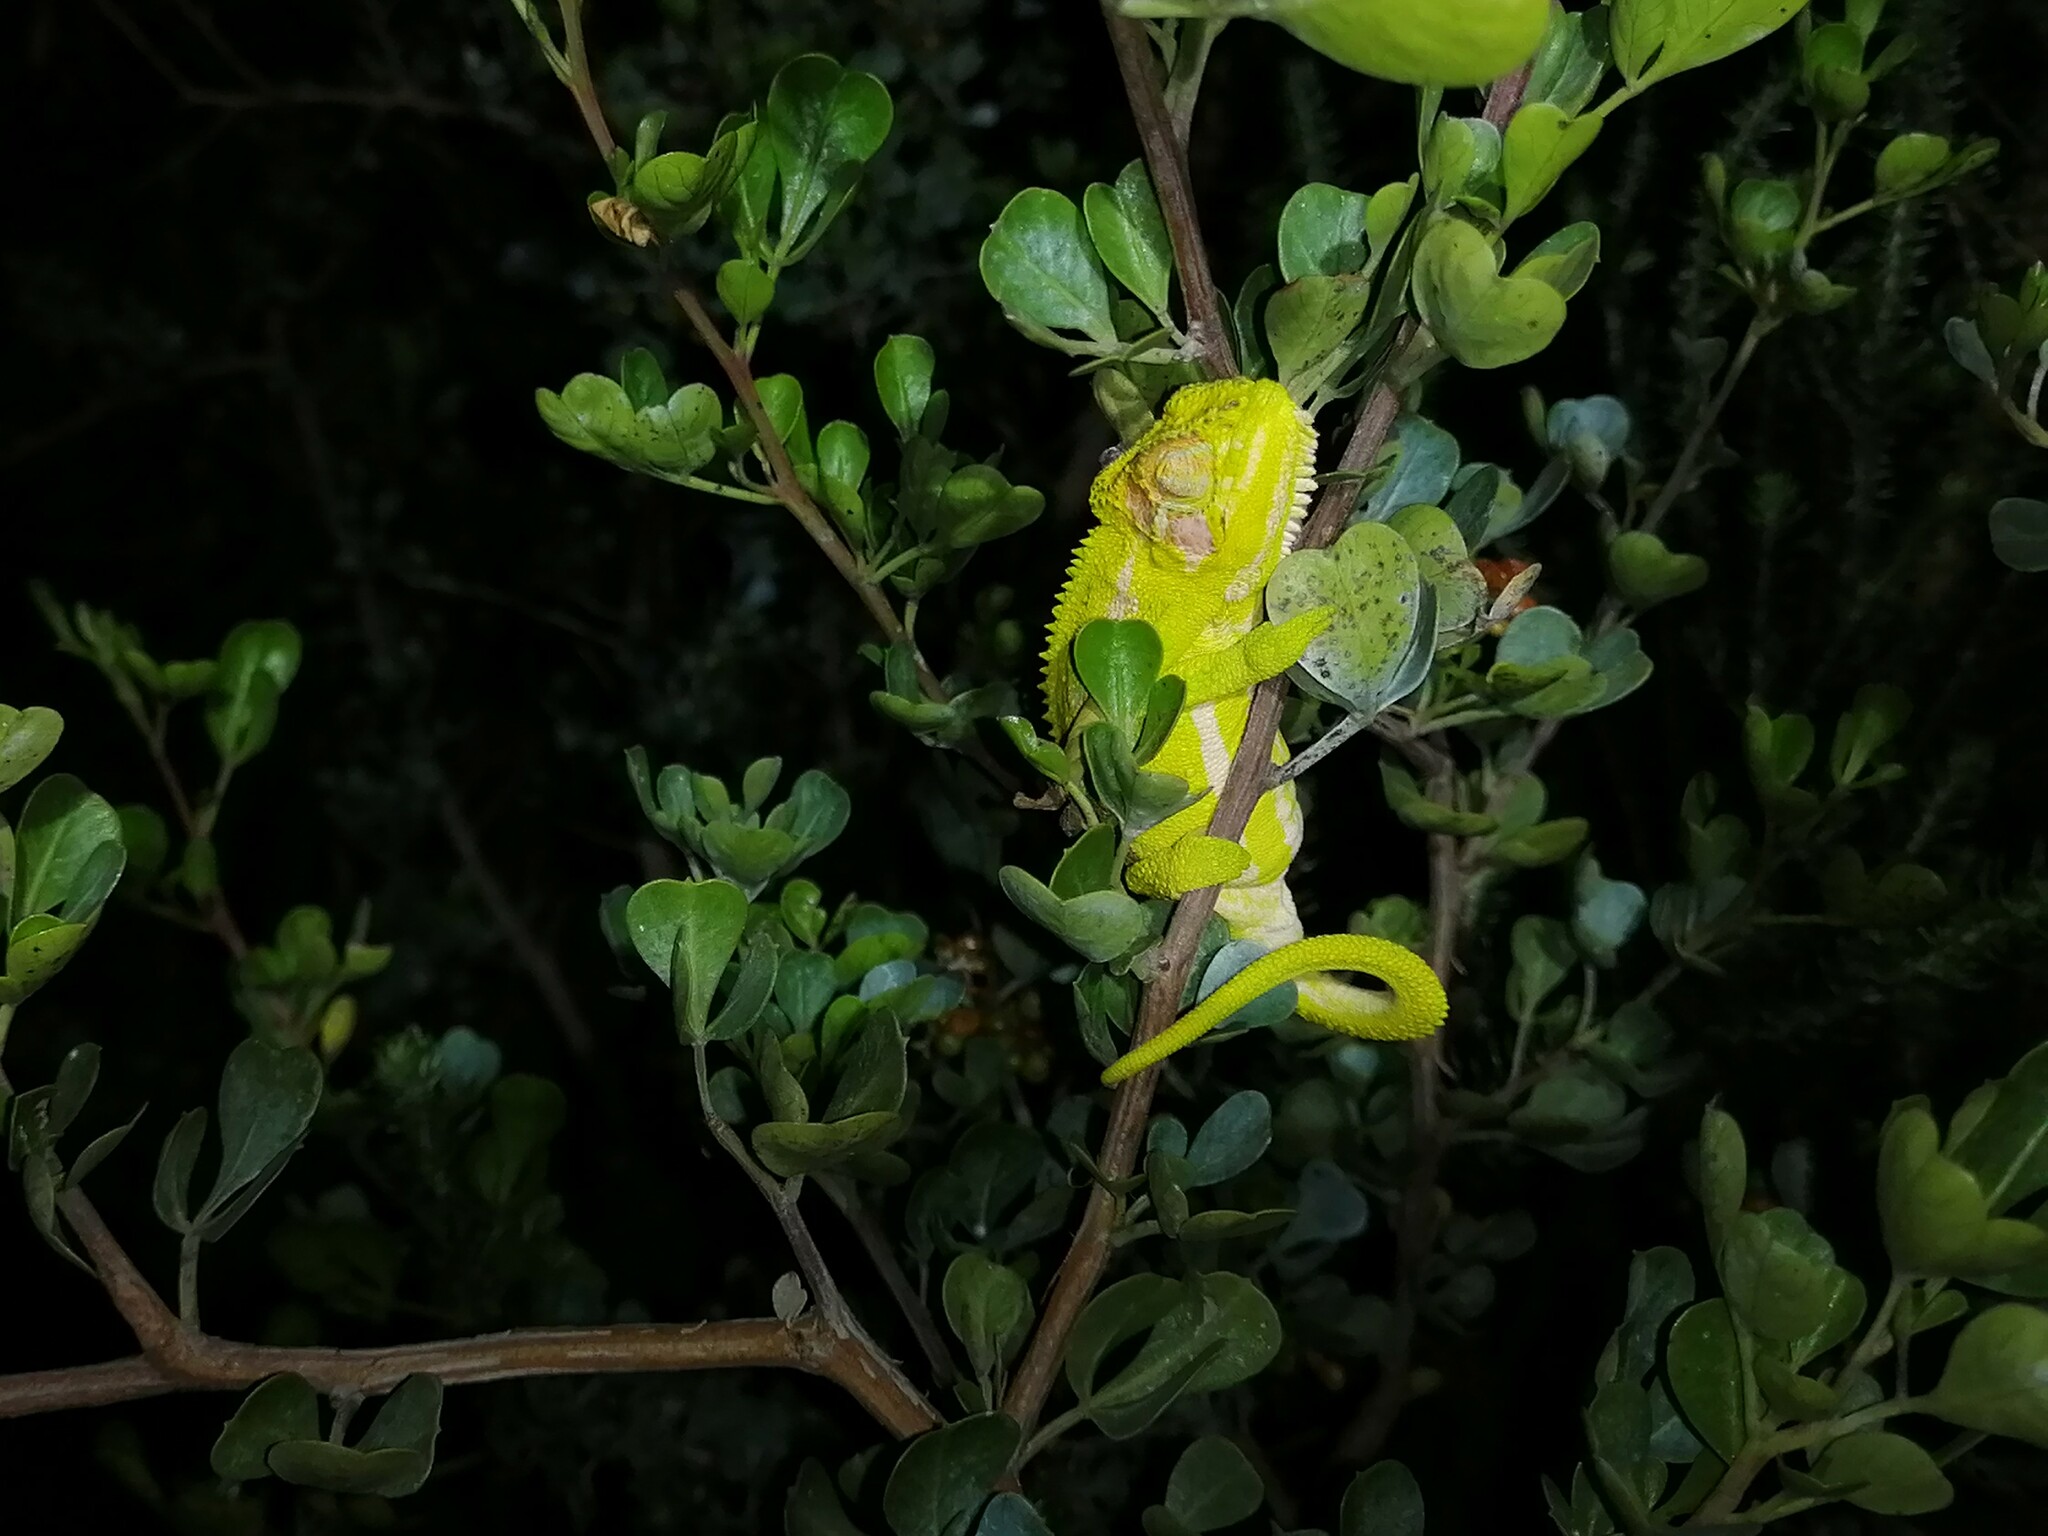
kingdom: Animalia
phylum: Chordata
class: Squamata
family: Chamaeleonidae
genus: Bradypodion
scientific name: Bradypodion pumilum
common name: Cape dwarf chameleon
